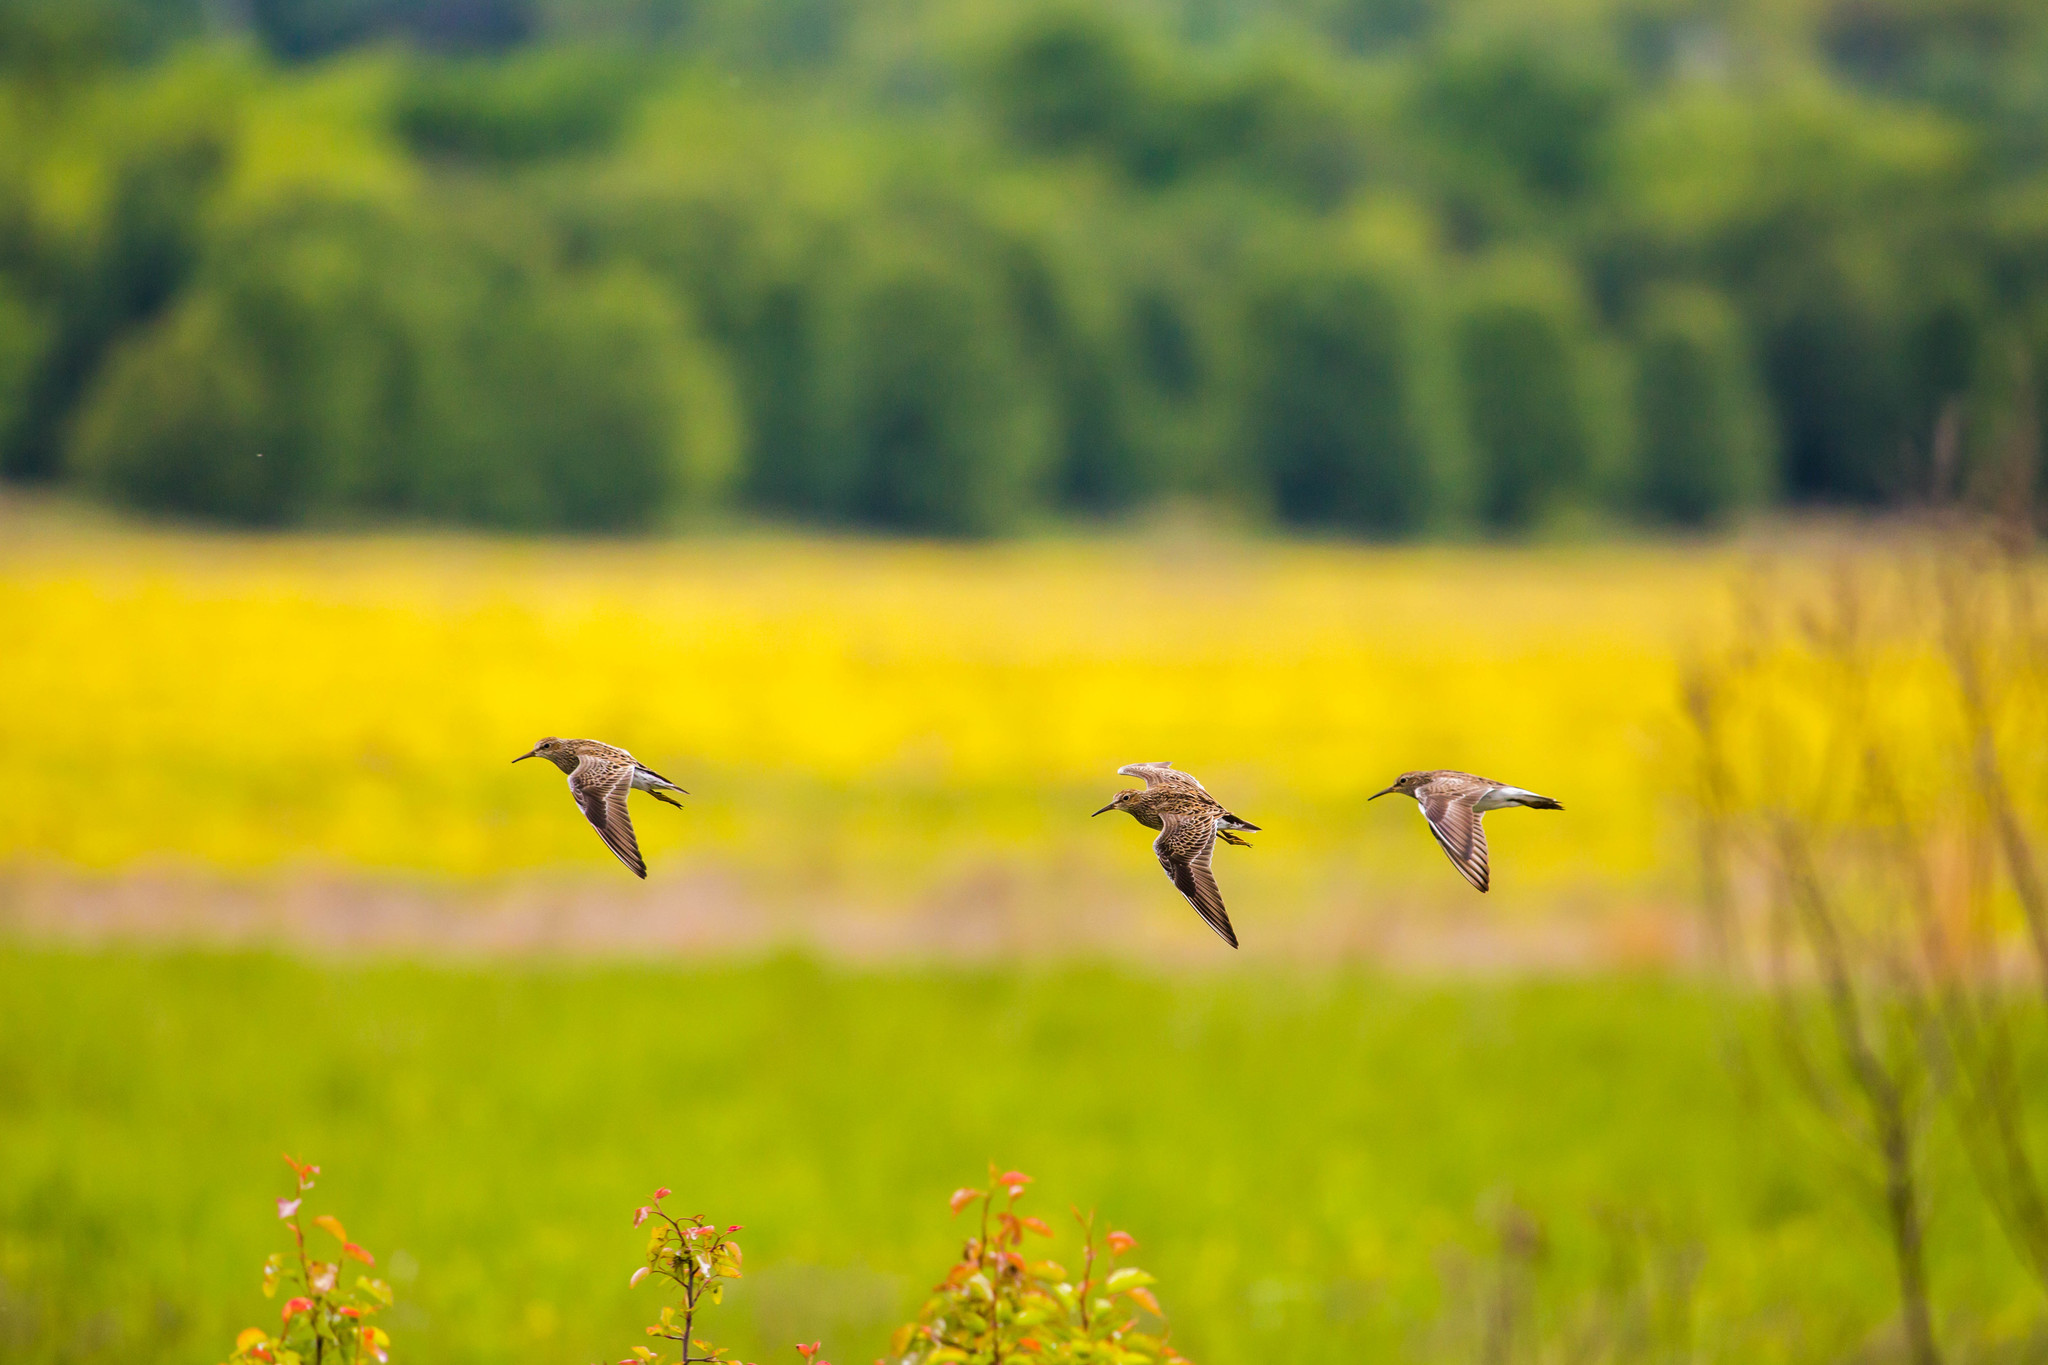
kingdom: Animalia
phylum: Chordata
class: Aves
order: Charadriiformes
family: Scolopacidae
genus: Calidris
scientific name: Calidris melanotos
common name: Pectoral sandpiper
